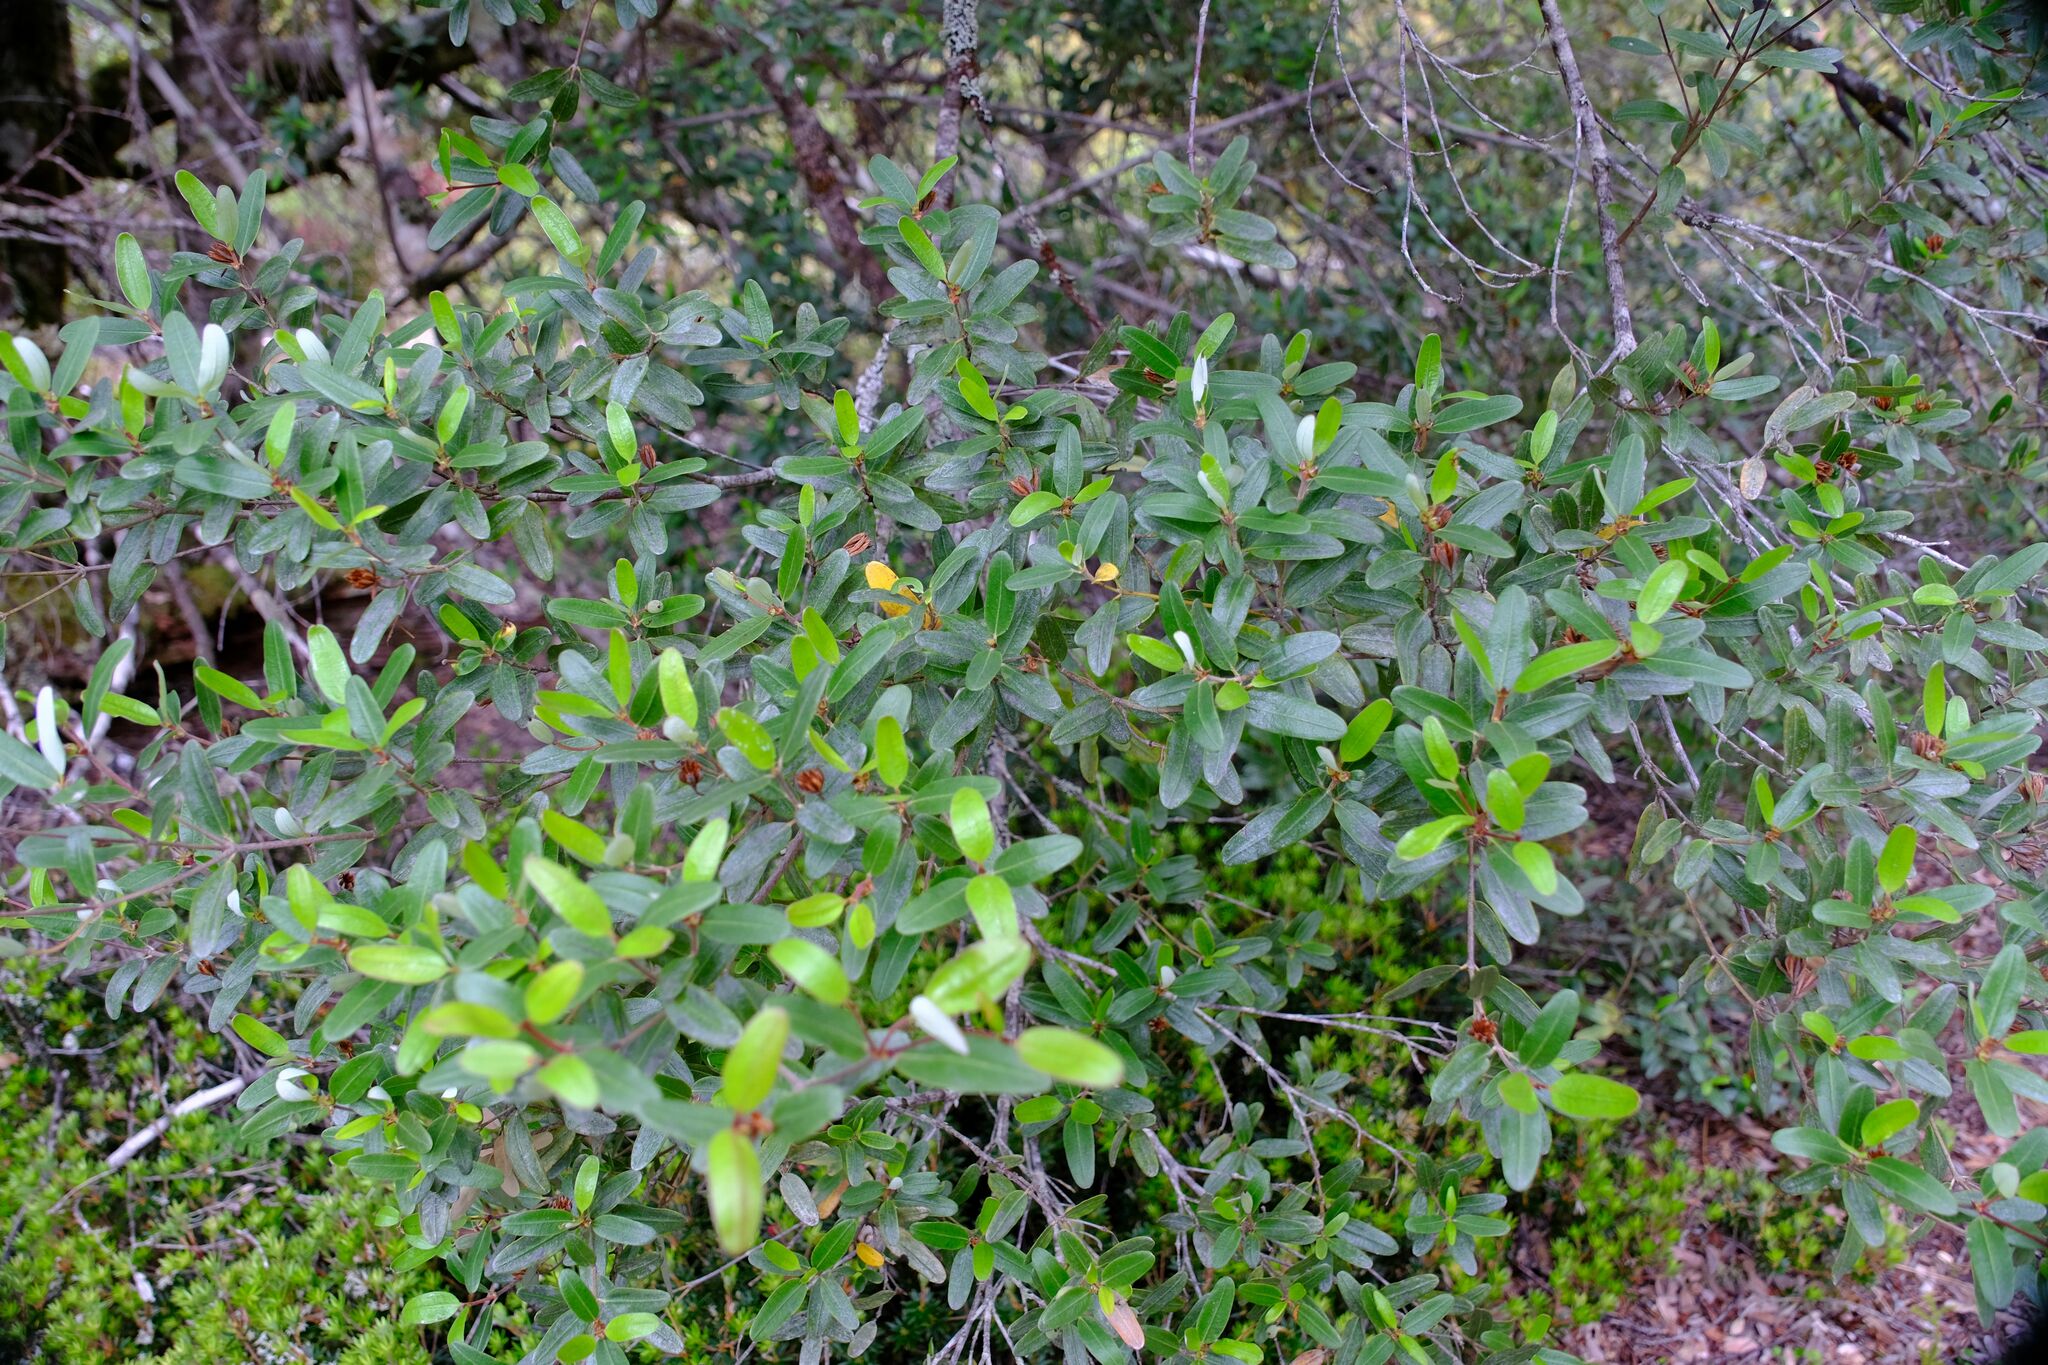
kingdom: Plantae
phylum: Tracheophyta
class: Magnoliopsida
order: Oxalidales
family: Cunoniaceae
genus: Eucryphia
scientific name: Eucryphia lucida
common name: Leatherwood
